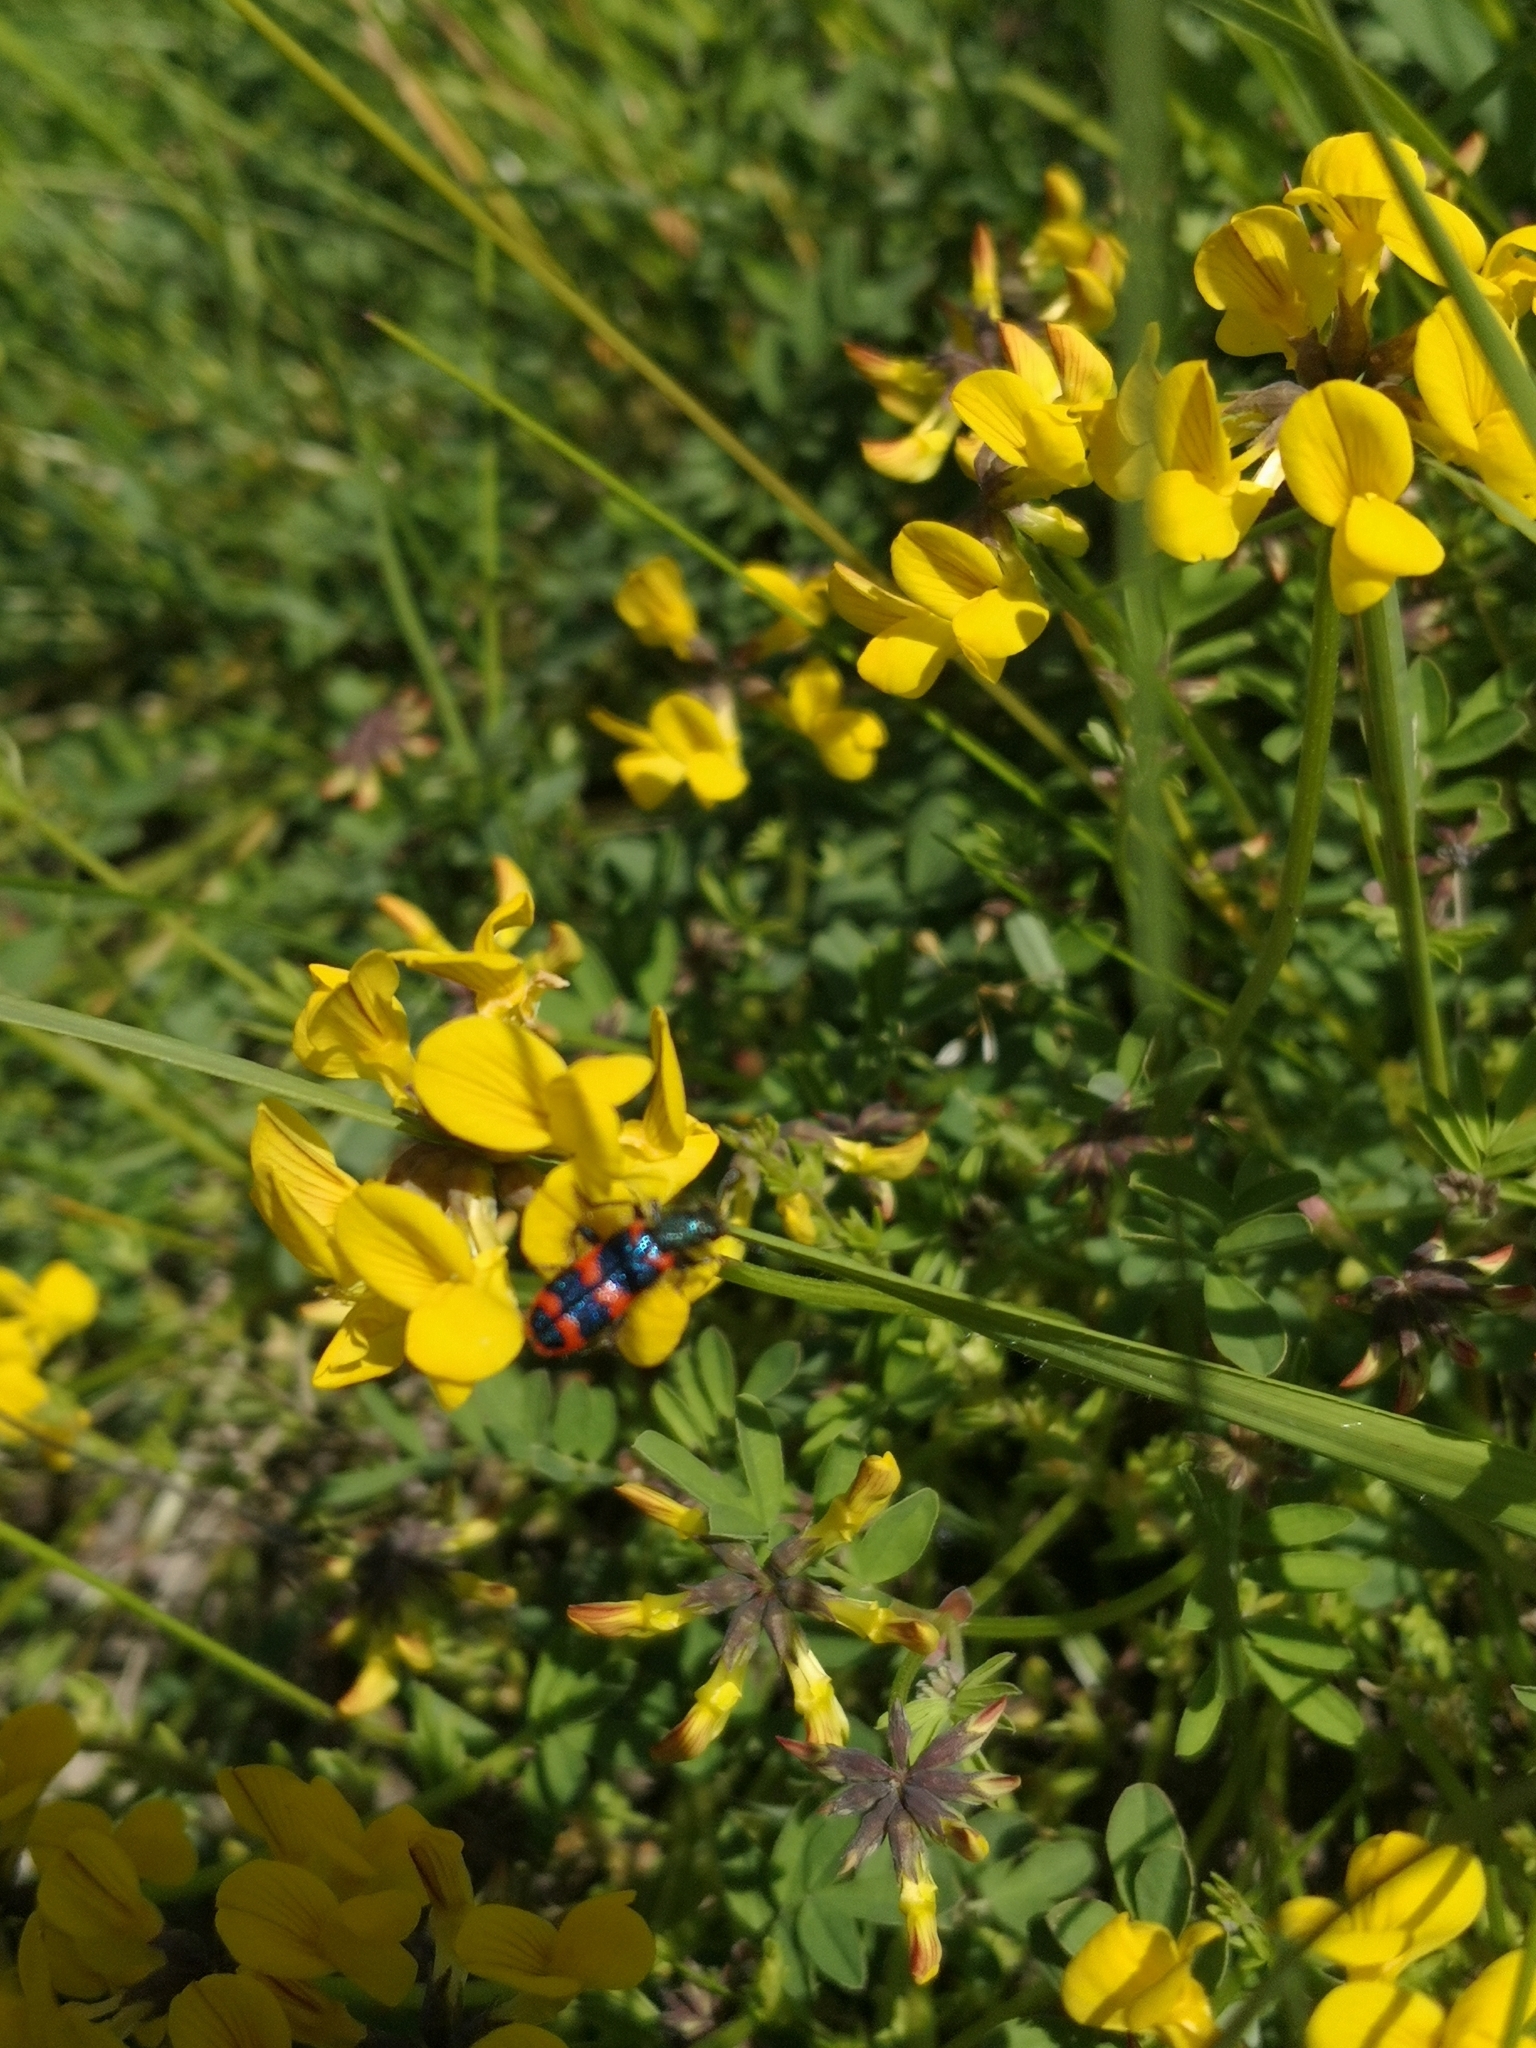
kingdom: Animalia
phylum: Arthropoda
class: Insecta
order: Coleoptera
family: Cleridae
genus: Trichodes
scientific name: Trichodes alvearius
